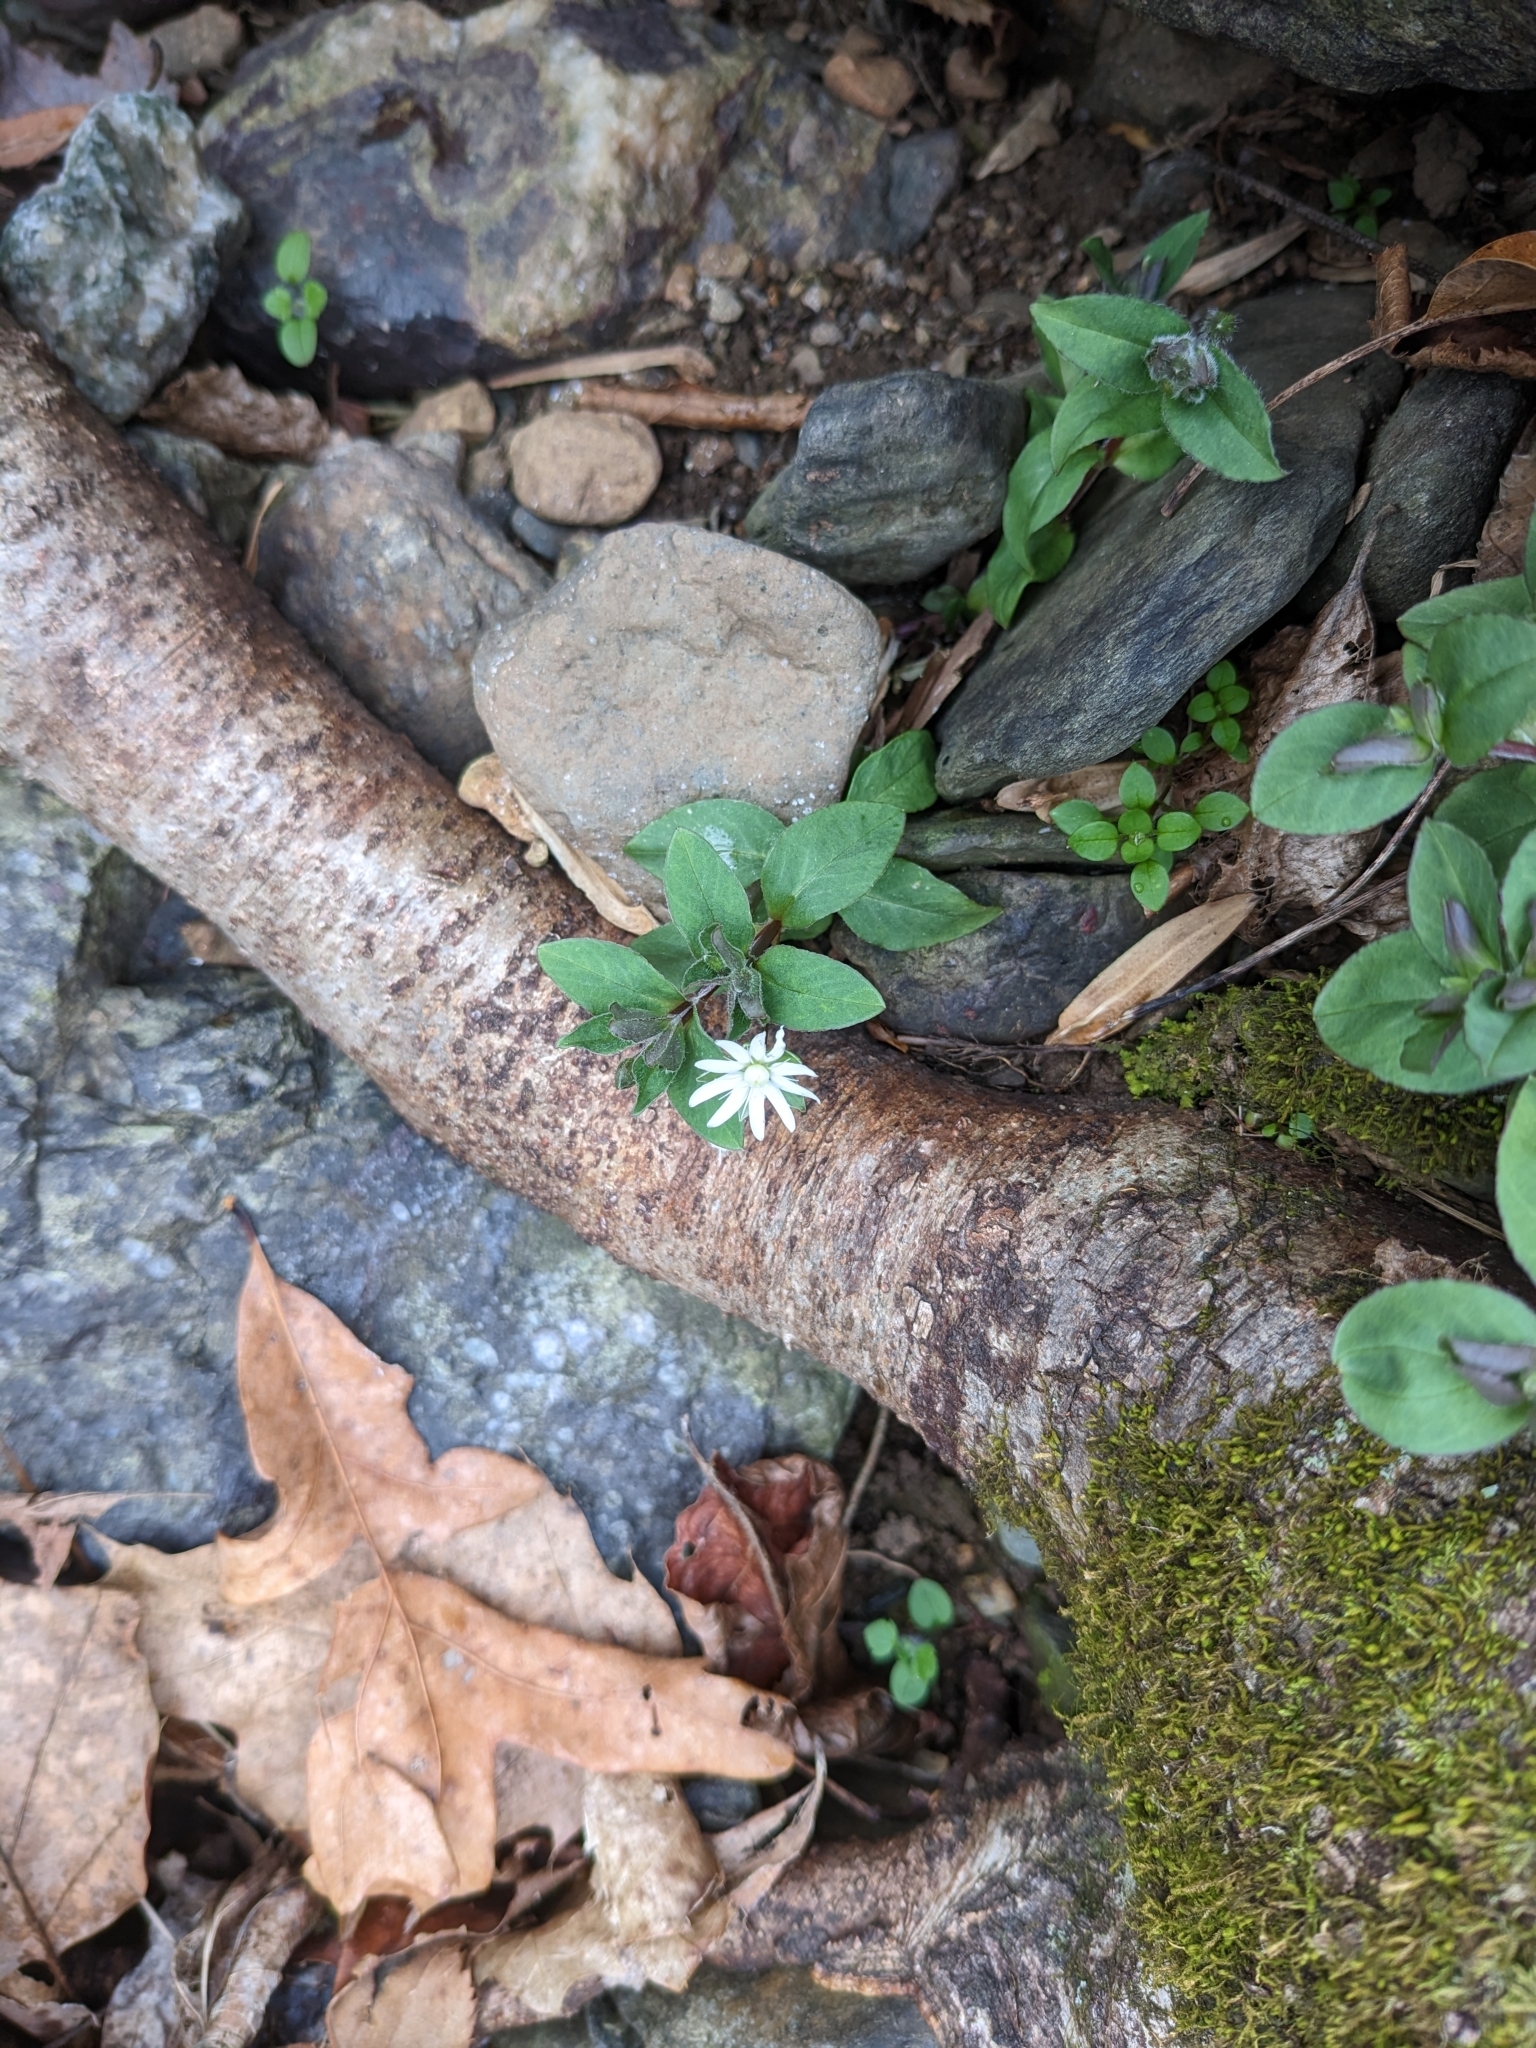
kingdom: Plantae
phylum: Tracheophyta
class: Magnoliopsida
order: Caryophyllales
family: Caryophyllaceae
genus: Stellaria
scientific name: Stellaria pubera
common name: Star chickweed
